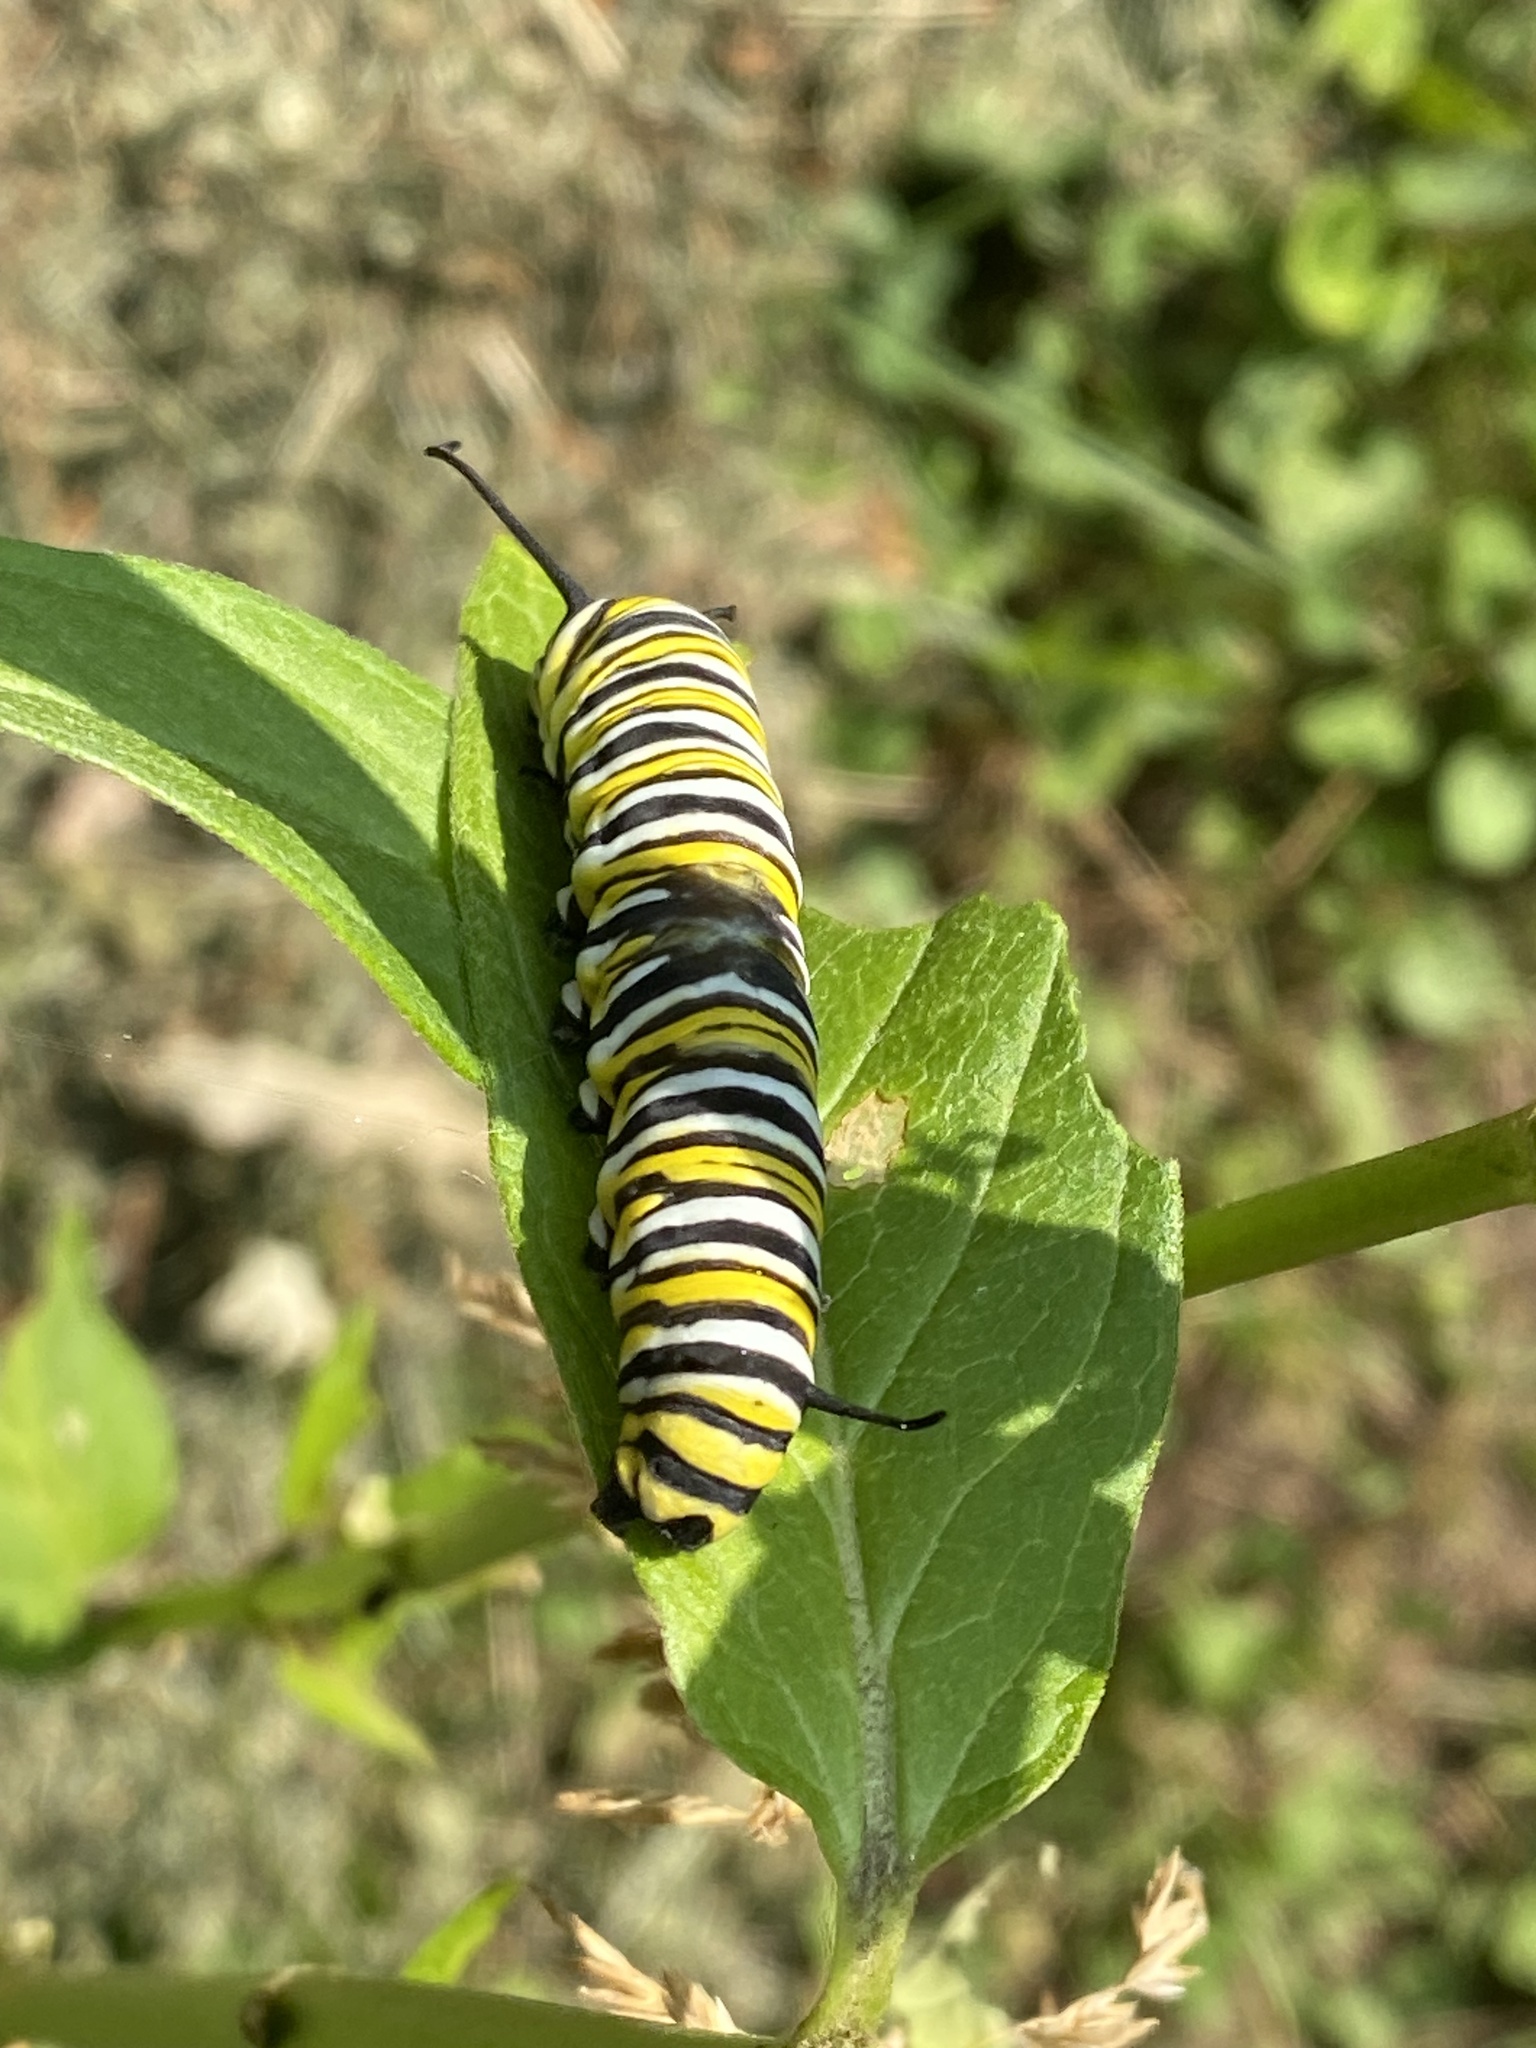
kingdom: Animalia
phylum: Arthropoda
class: Insecta
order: Lepidoptera
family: Nymphalidae
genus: Danaus
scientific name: Danaus plexippus
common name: Monarch
